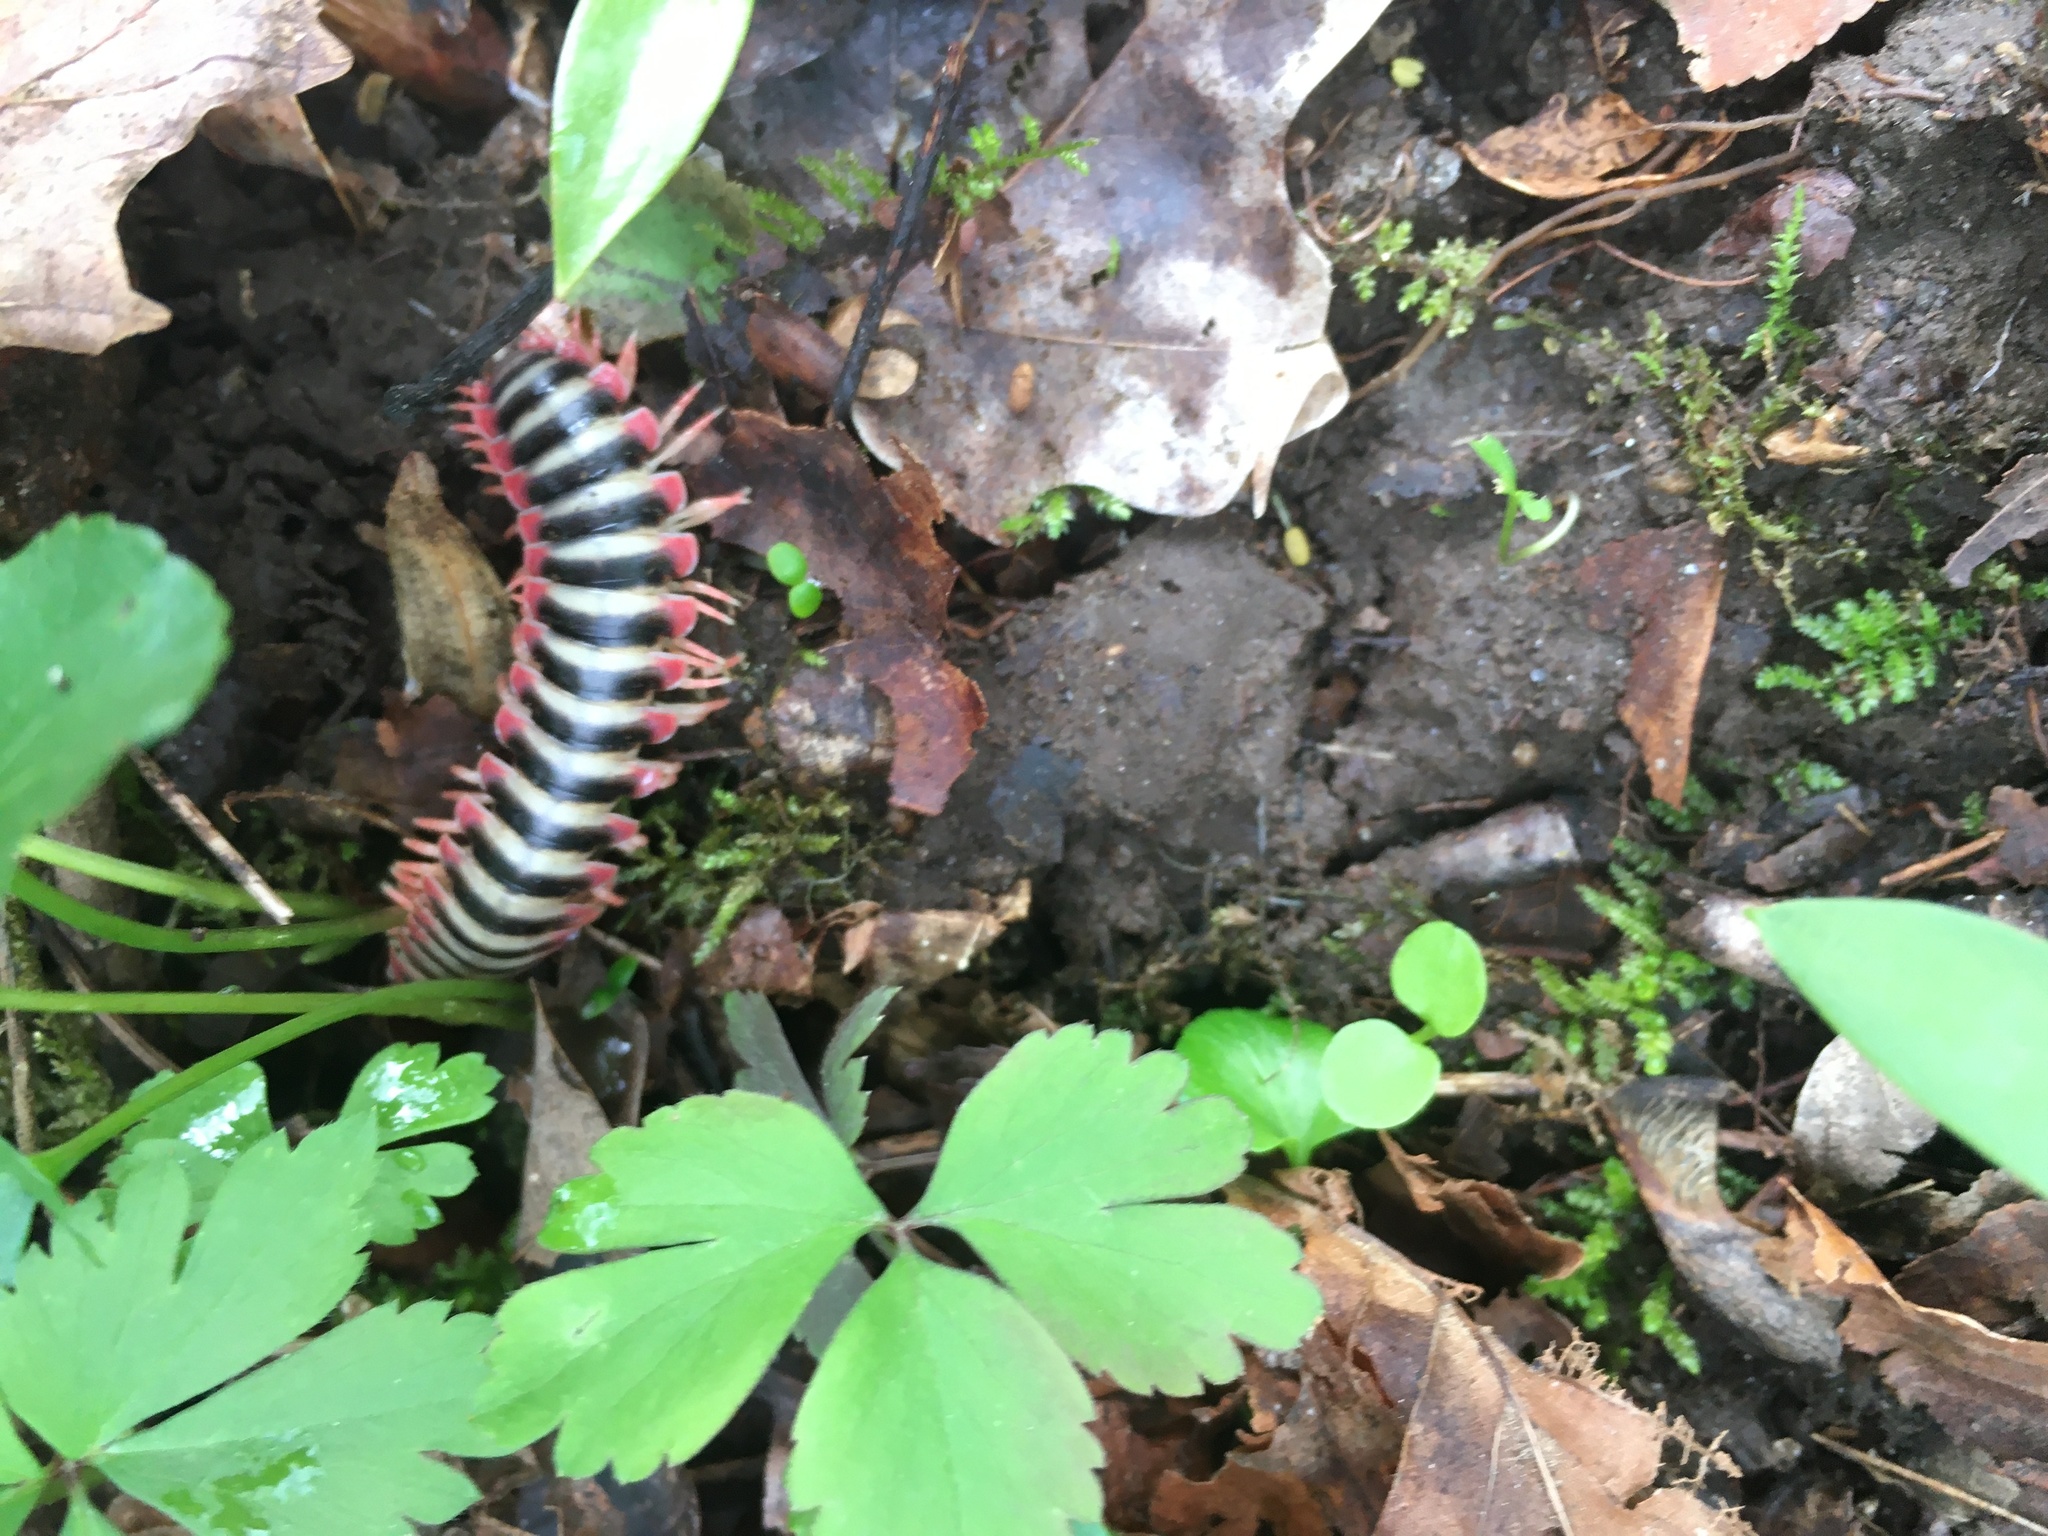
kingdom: Animalia
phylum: Arthropoda
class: Diplopoda
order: Polydesmida
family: Xystodesmidae
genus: Sigmoria
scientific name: Sigmoria nantahalae
